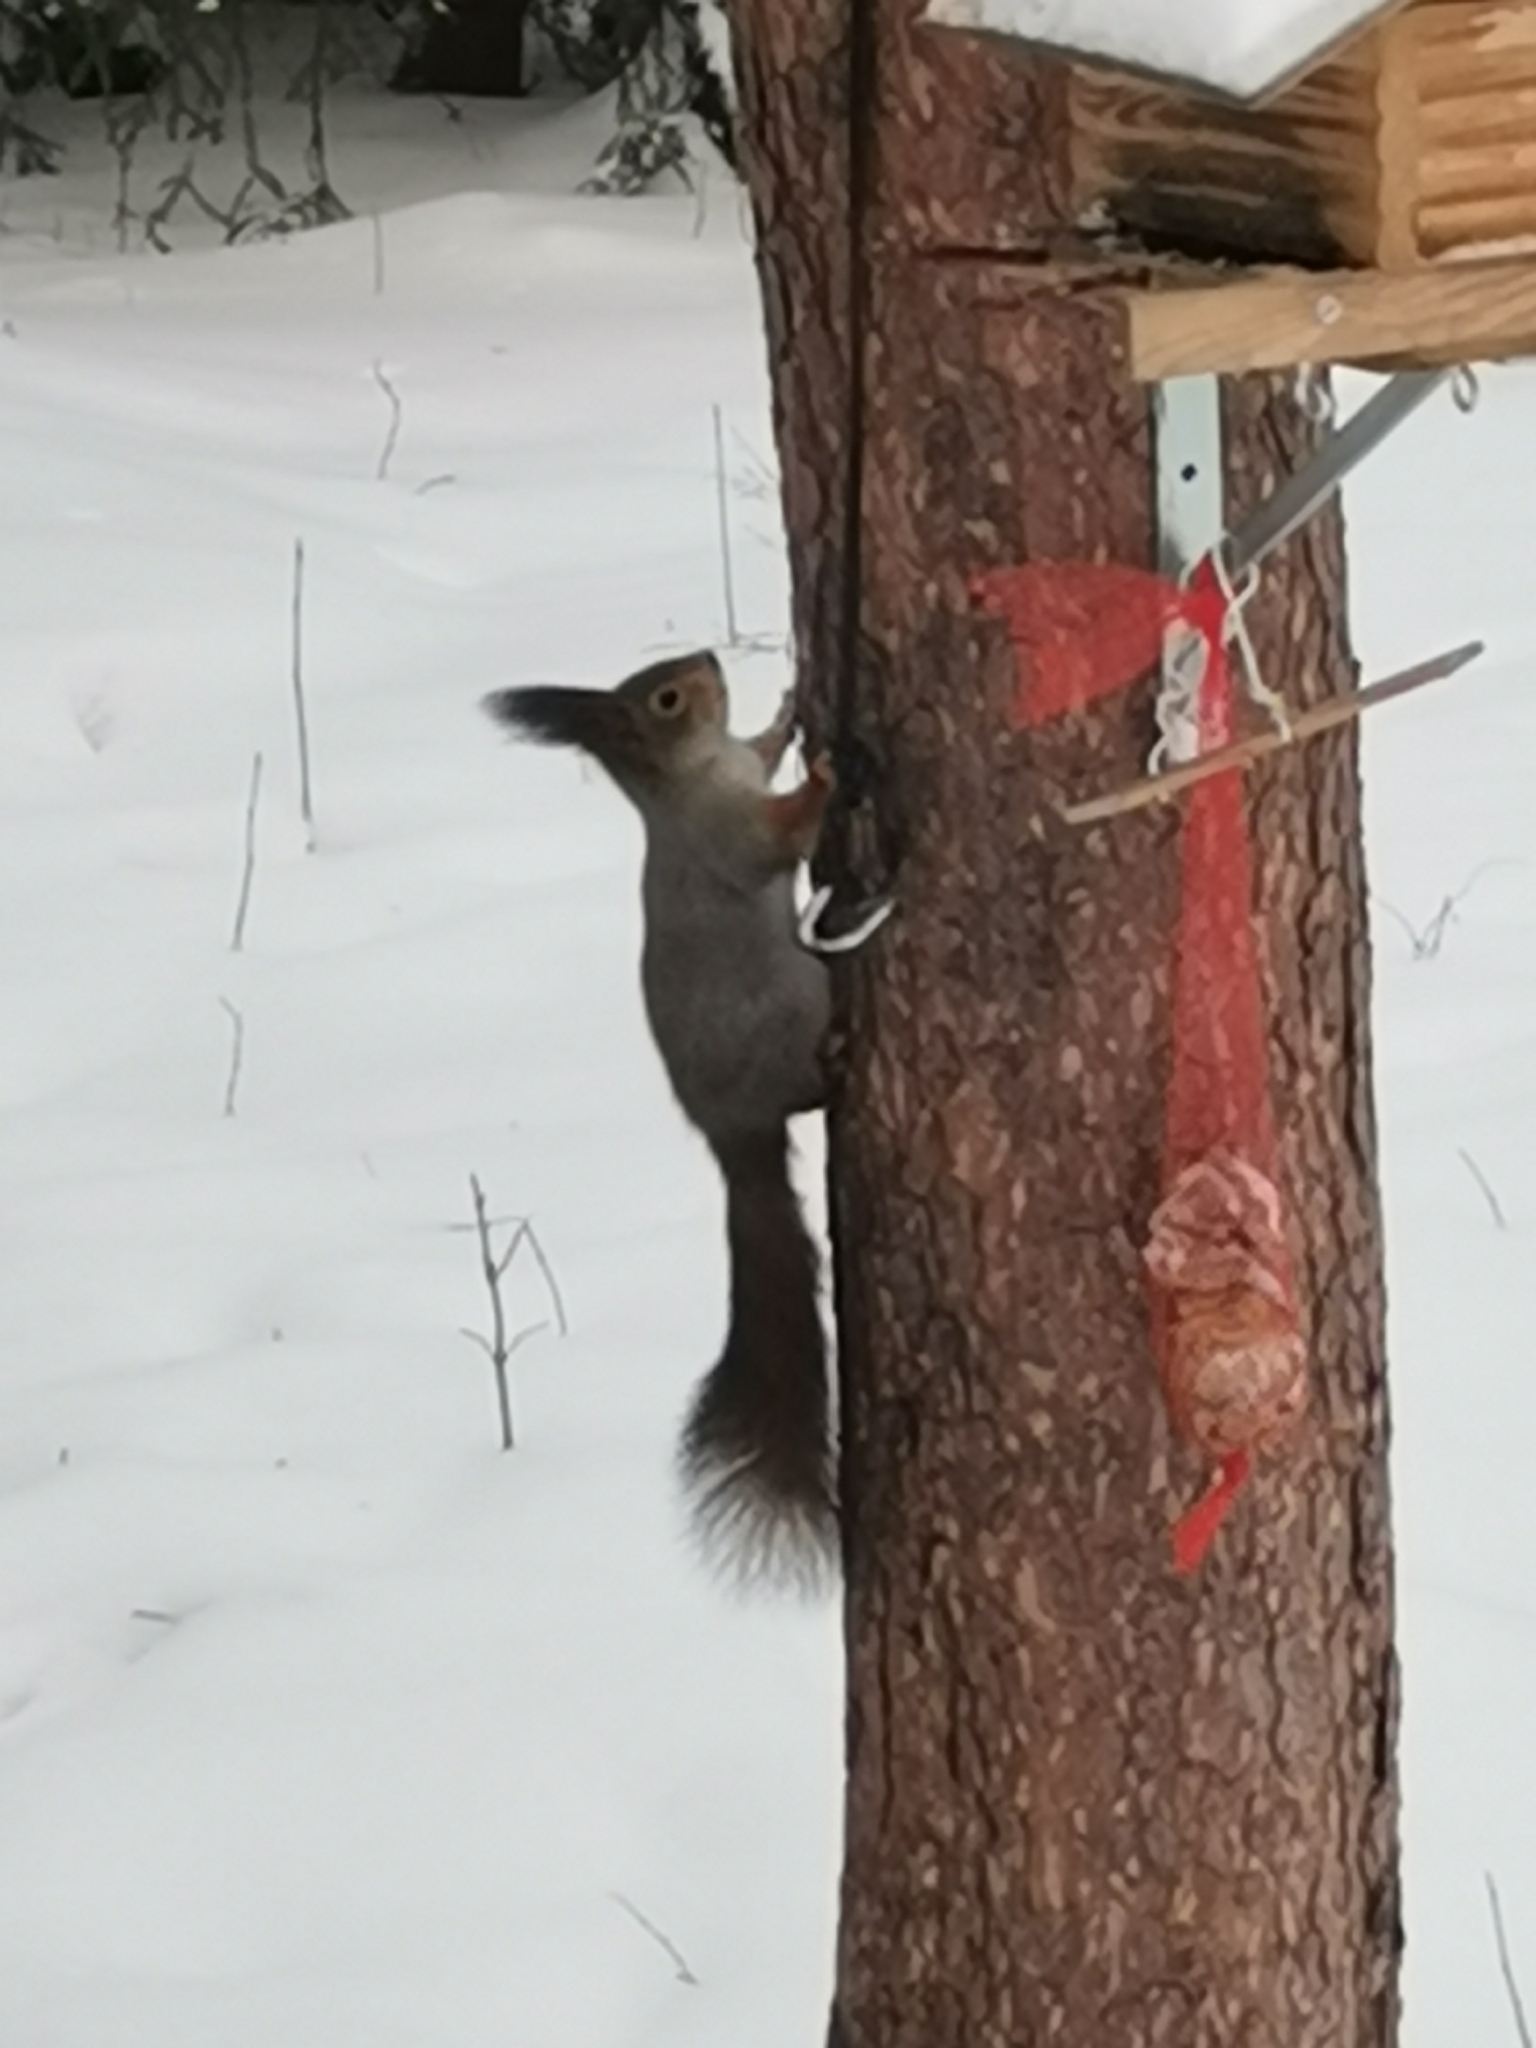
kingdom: Animalia
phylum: Chordata
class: Mammalia
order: Rodentia
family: Sciuridae
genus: Sciurus
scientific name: Sciurus vulgaris
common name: Eurasian red squirrel
